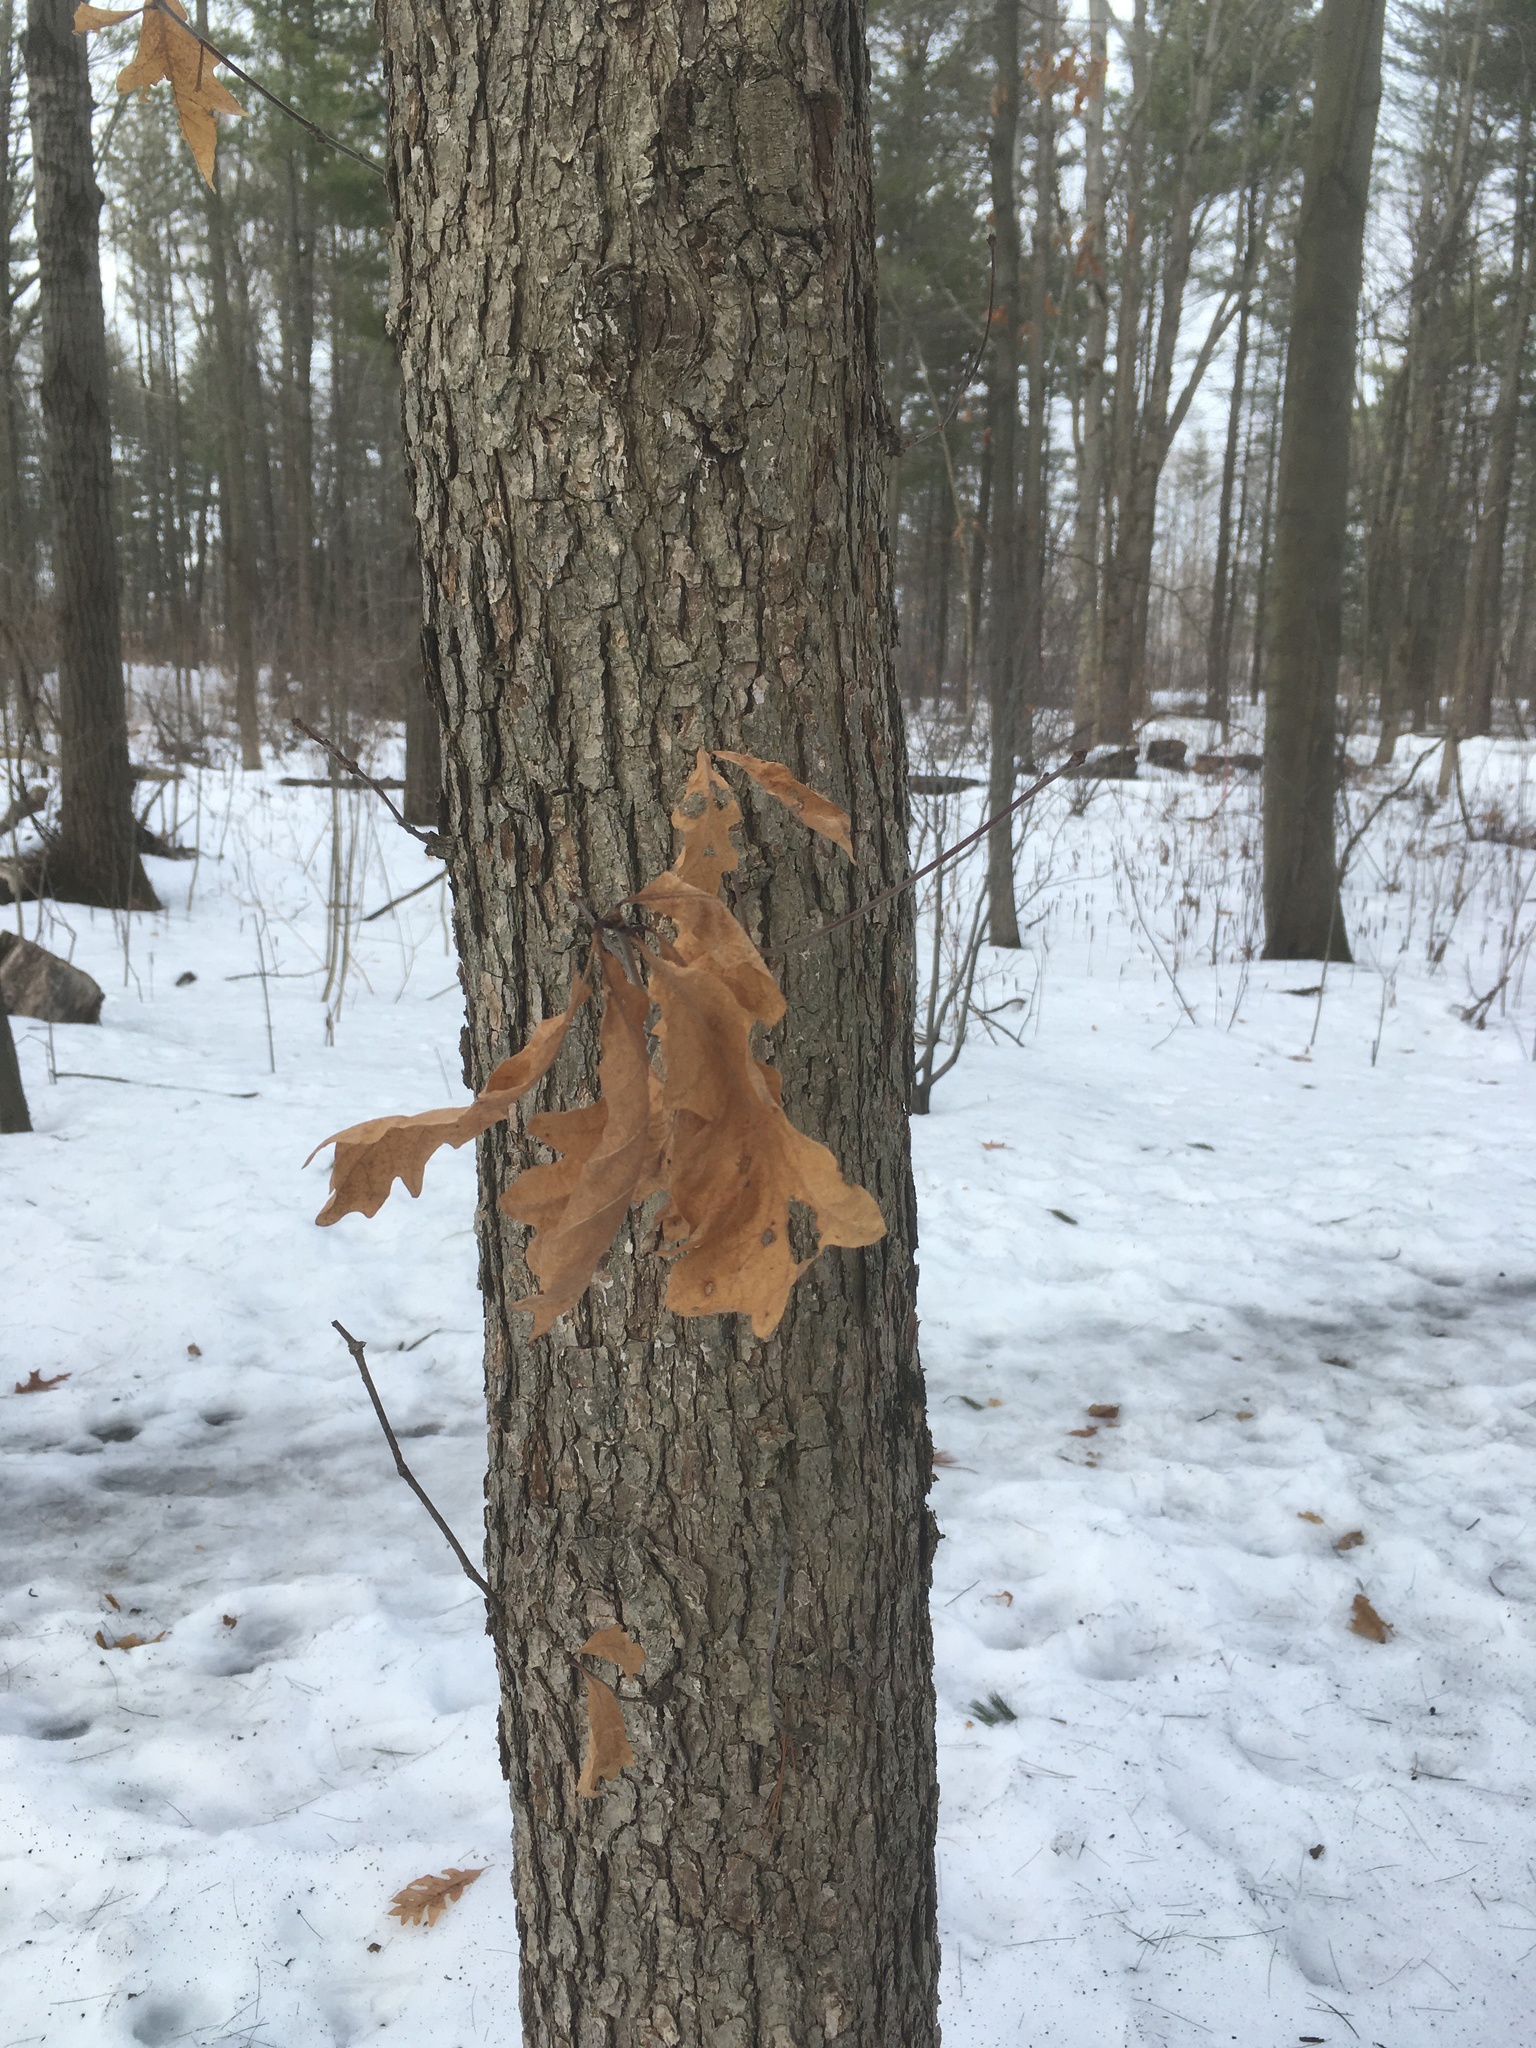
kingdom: Plantae
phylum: Tracheophyta
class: Magnoliopsida
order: Fagales
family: Fagaceae
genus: Quercus
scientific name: Quercus alba
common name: White oak
